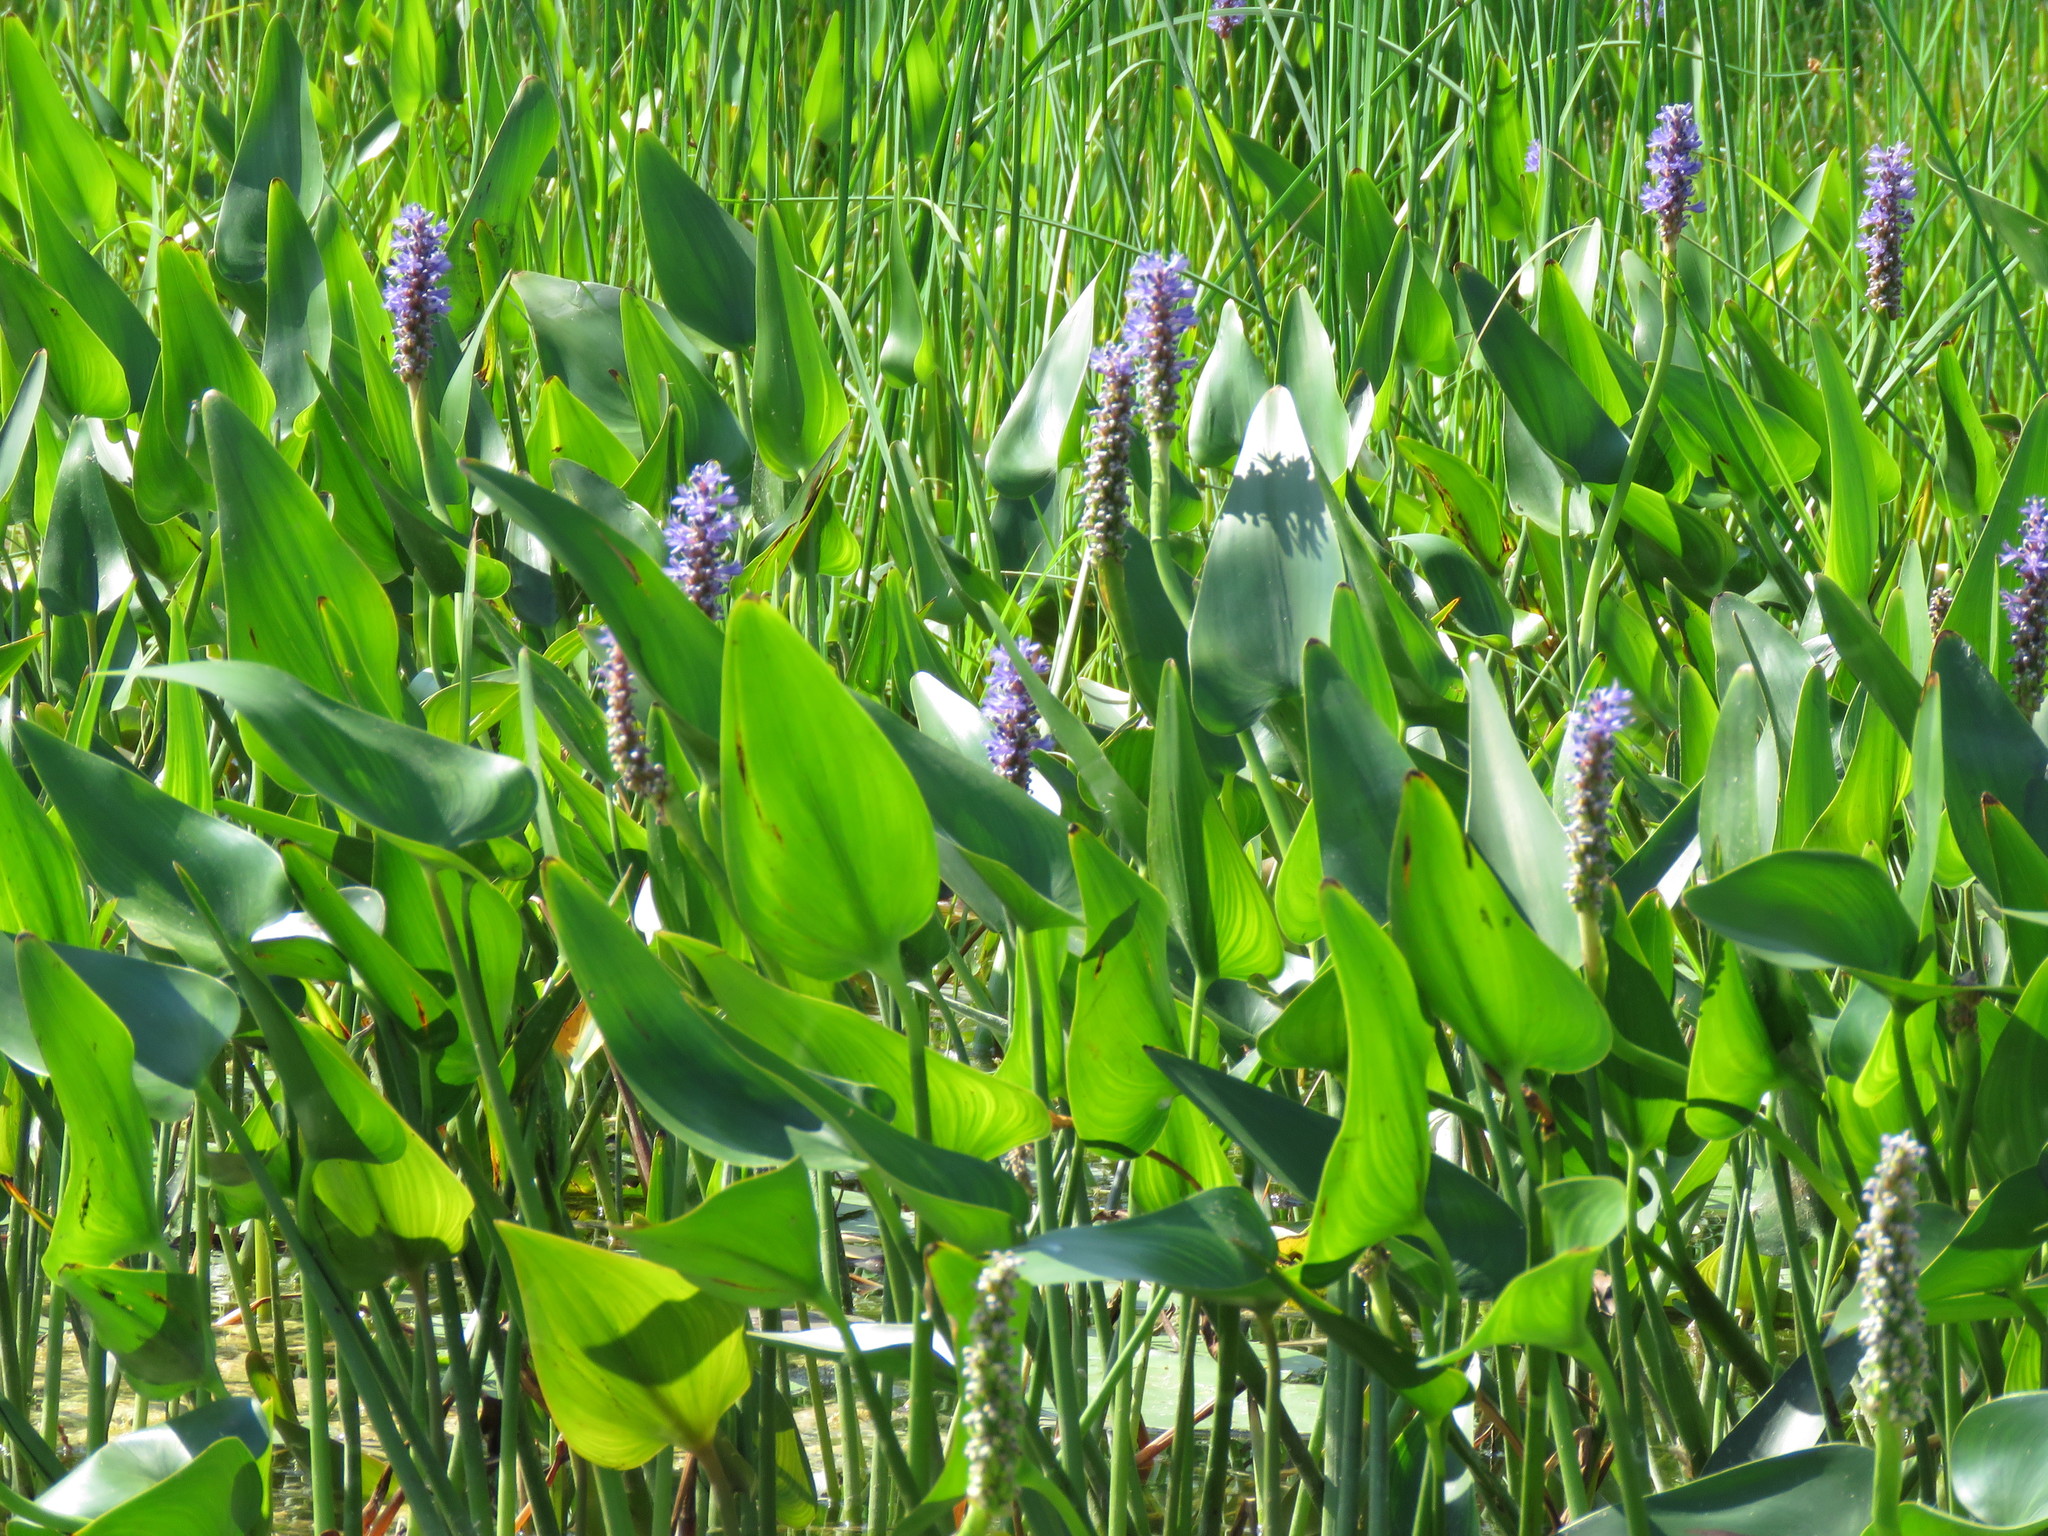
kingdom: Plantae
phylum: Tracheophyta
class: Liliopsida
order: Commelinales
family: Pontederiaceae
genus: Pontederia
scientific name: Pontederia cordata
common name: Pickerelweed
